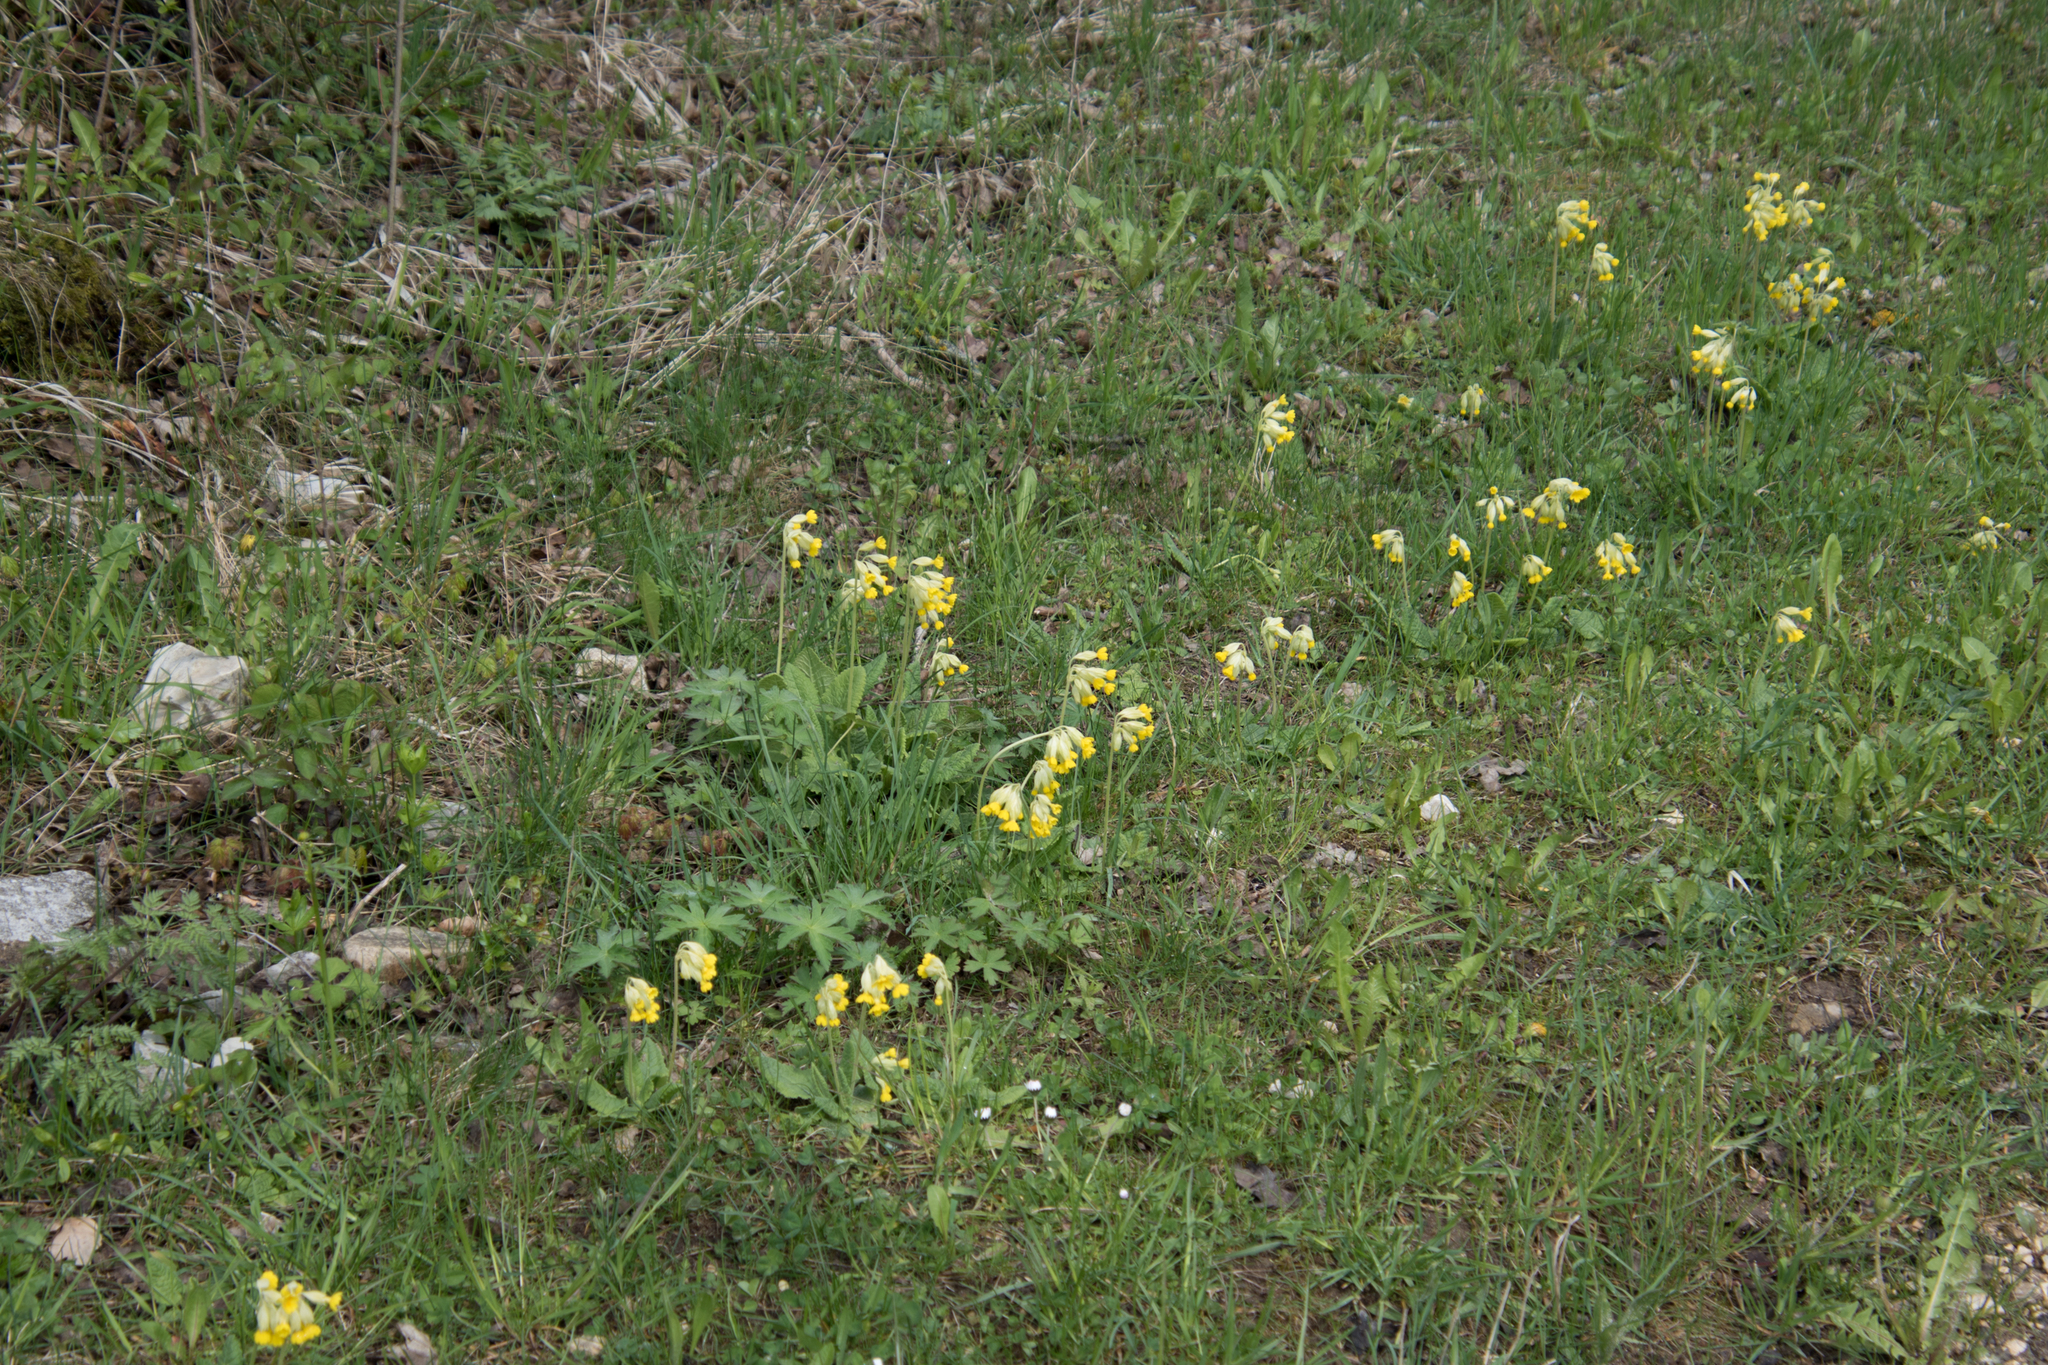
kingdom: Plantae
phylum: Tracheophyta
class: Magnoliopsida
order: Ericales
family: Primulaceae
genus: Primula
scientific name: Primula veris
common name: Cowslip
